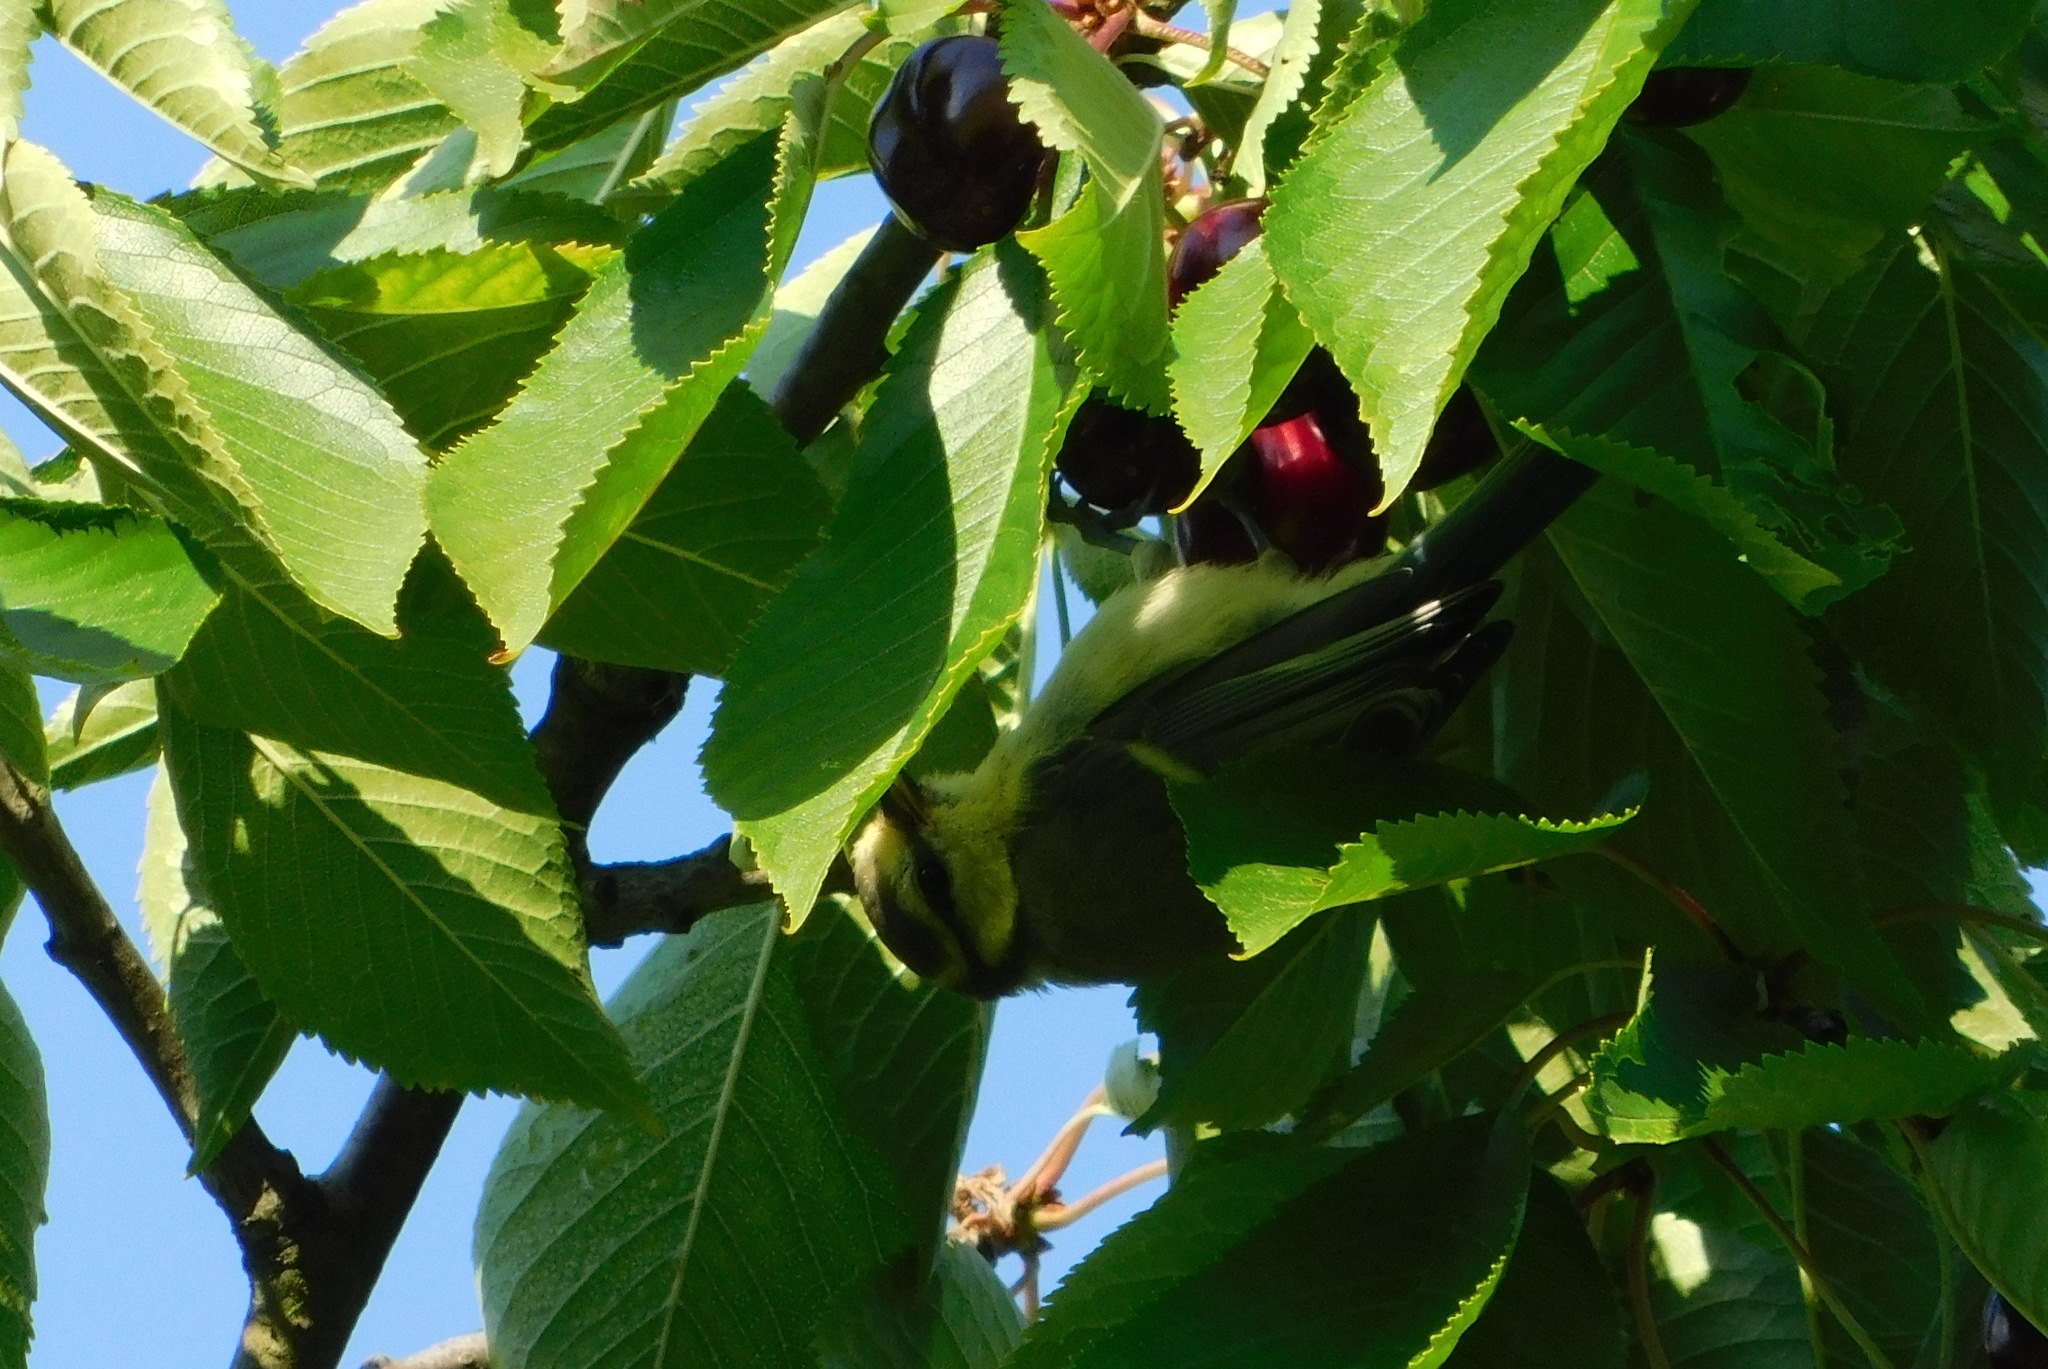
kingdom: Animalia
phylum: Chordata
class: Aves
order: Passeriformes
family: Paridae
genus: Cyanistes
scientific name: Cyanistes caeruleus
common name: Eurasian blue tit
